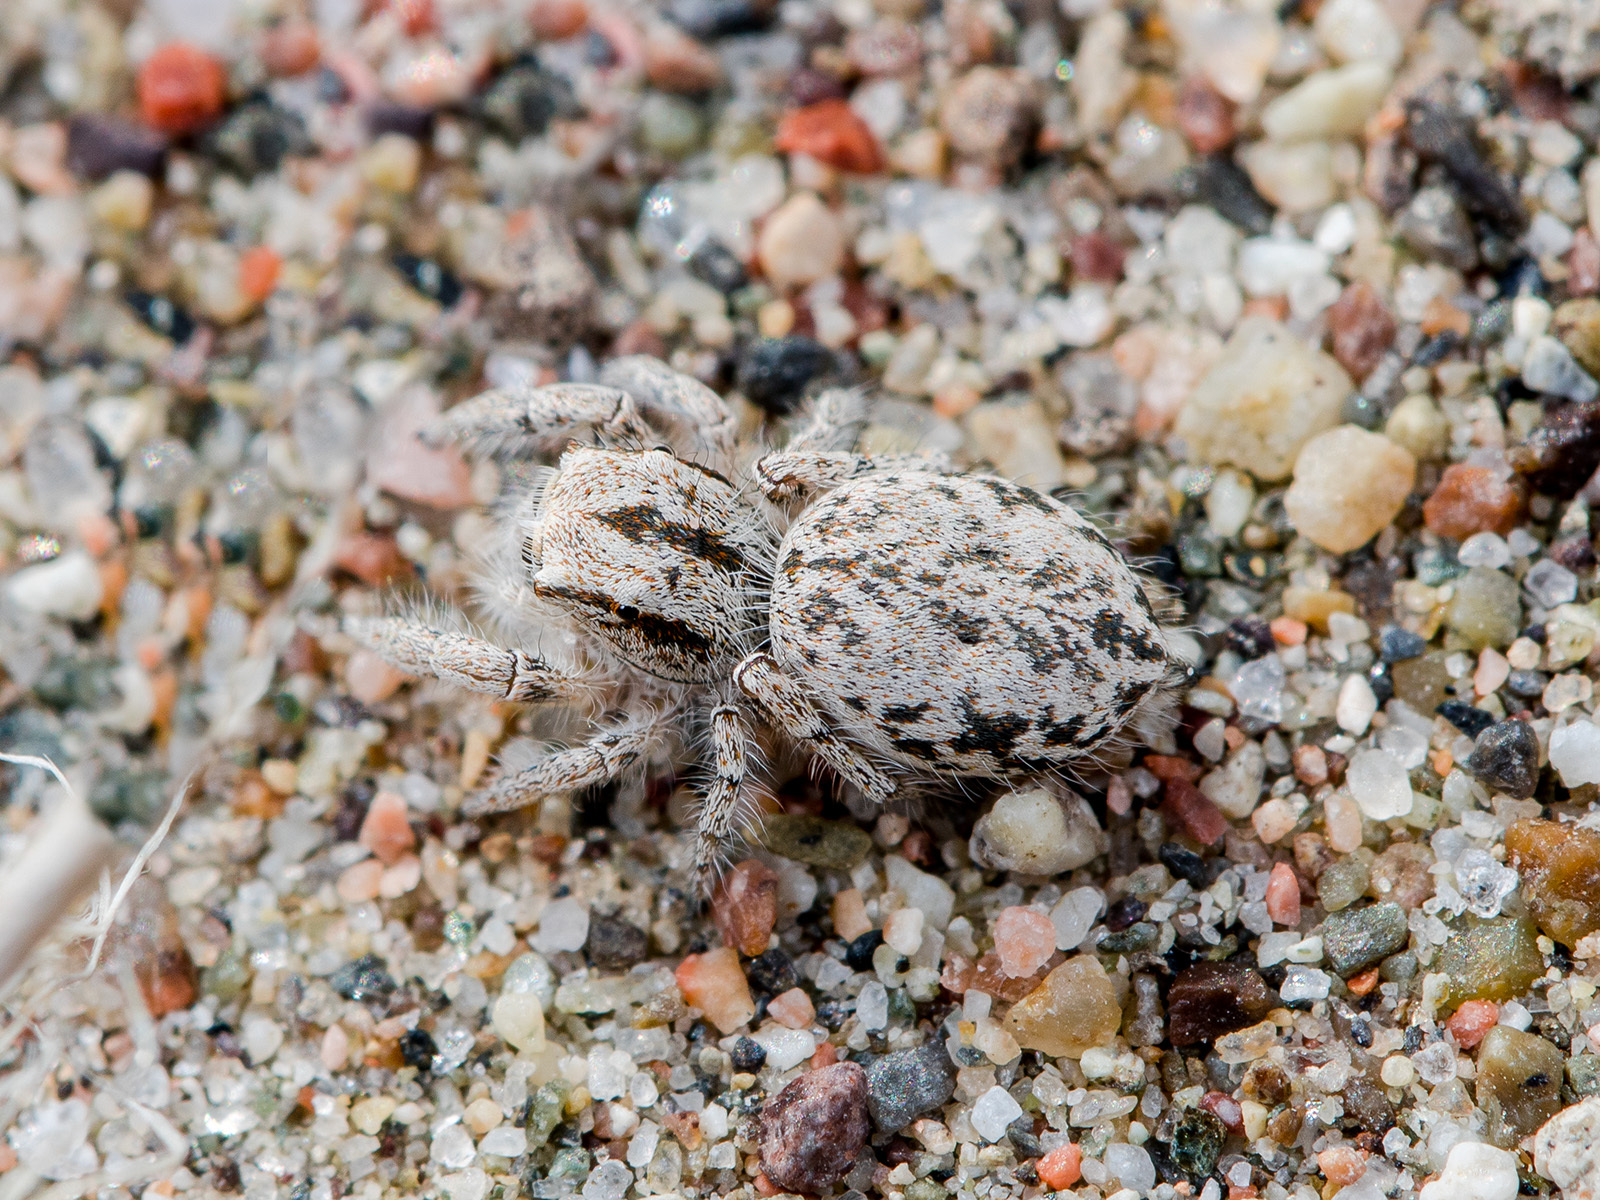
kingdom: Animalia
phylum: Arthropoda
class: Arachnida
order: Araneae
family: Salticidae
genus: Marusyllus
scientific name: Marusyllus aralicus
